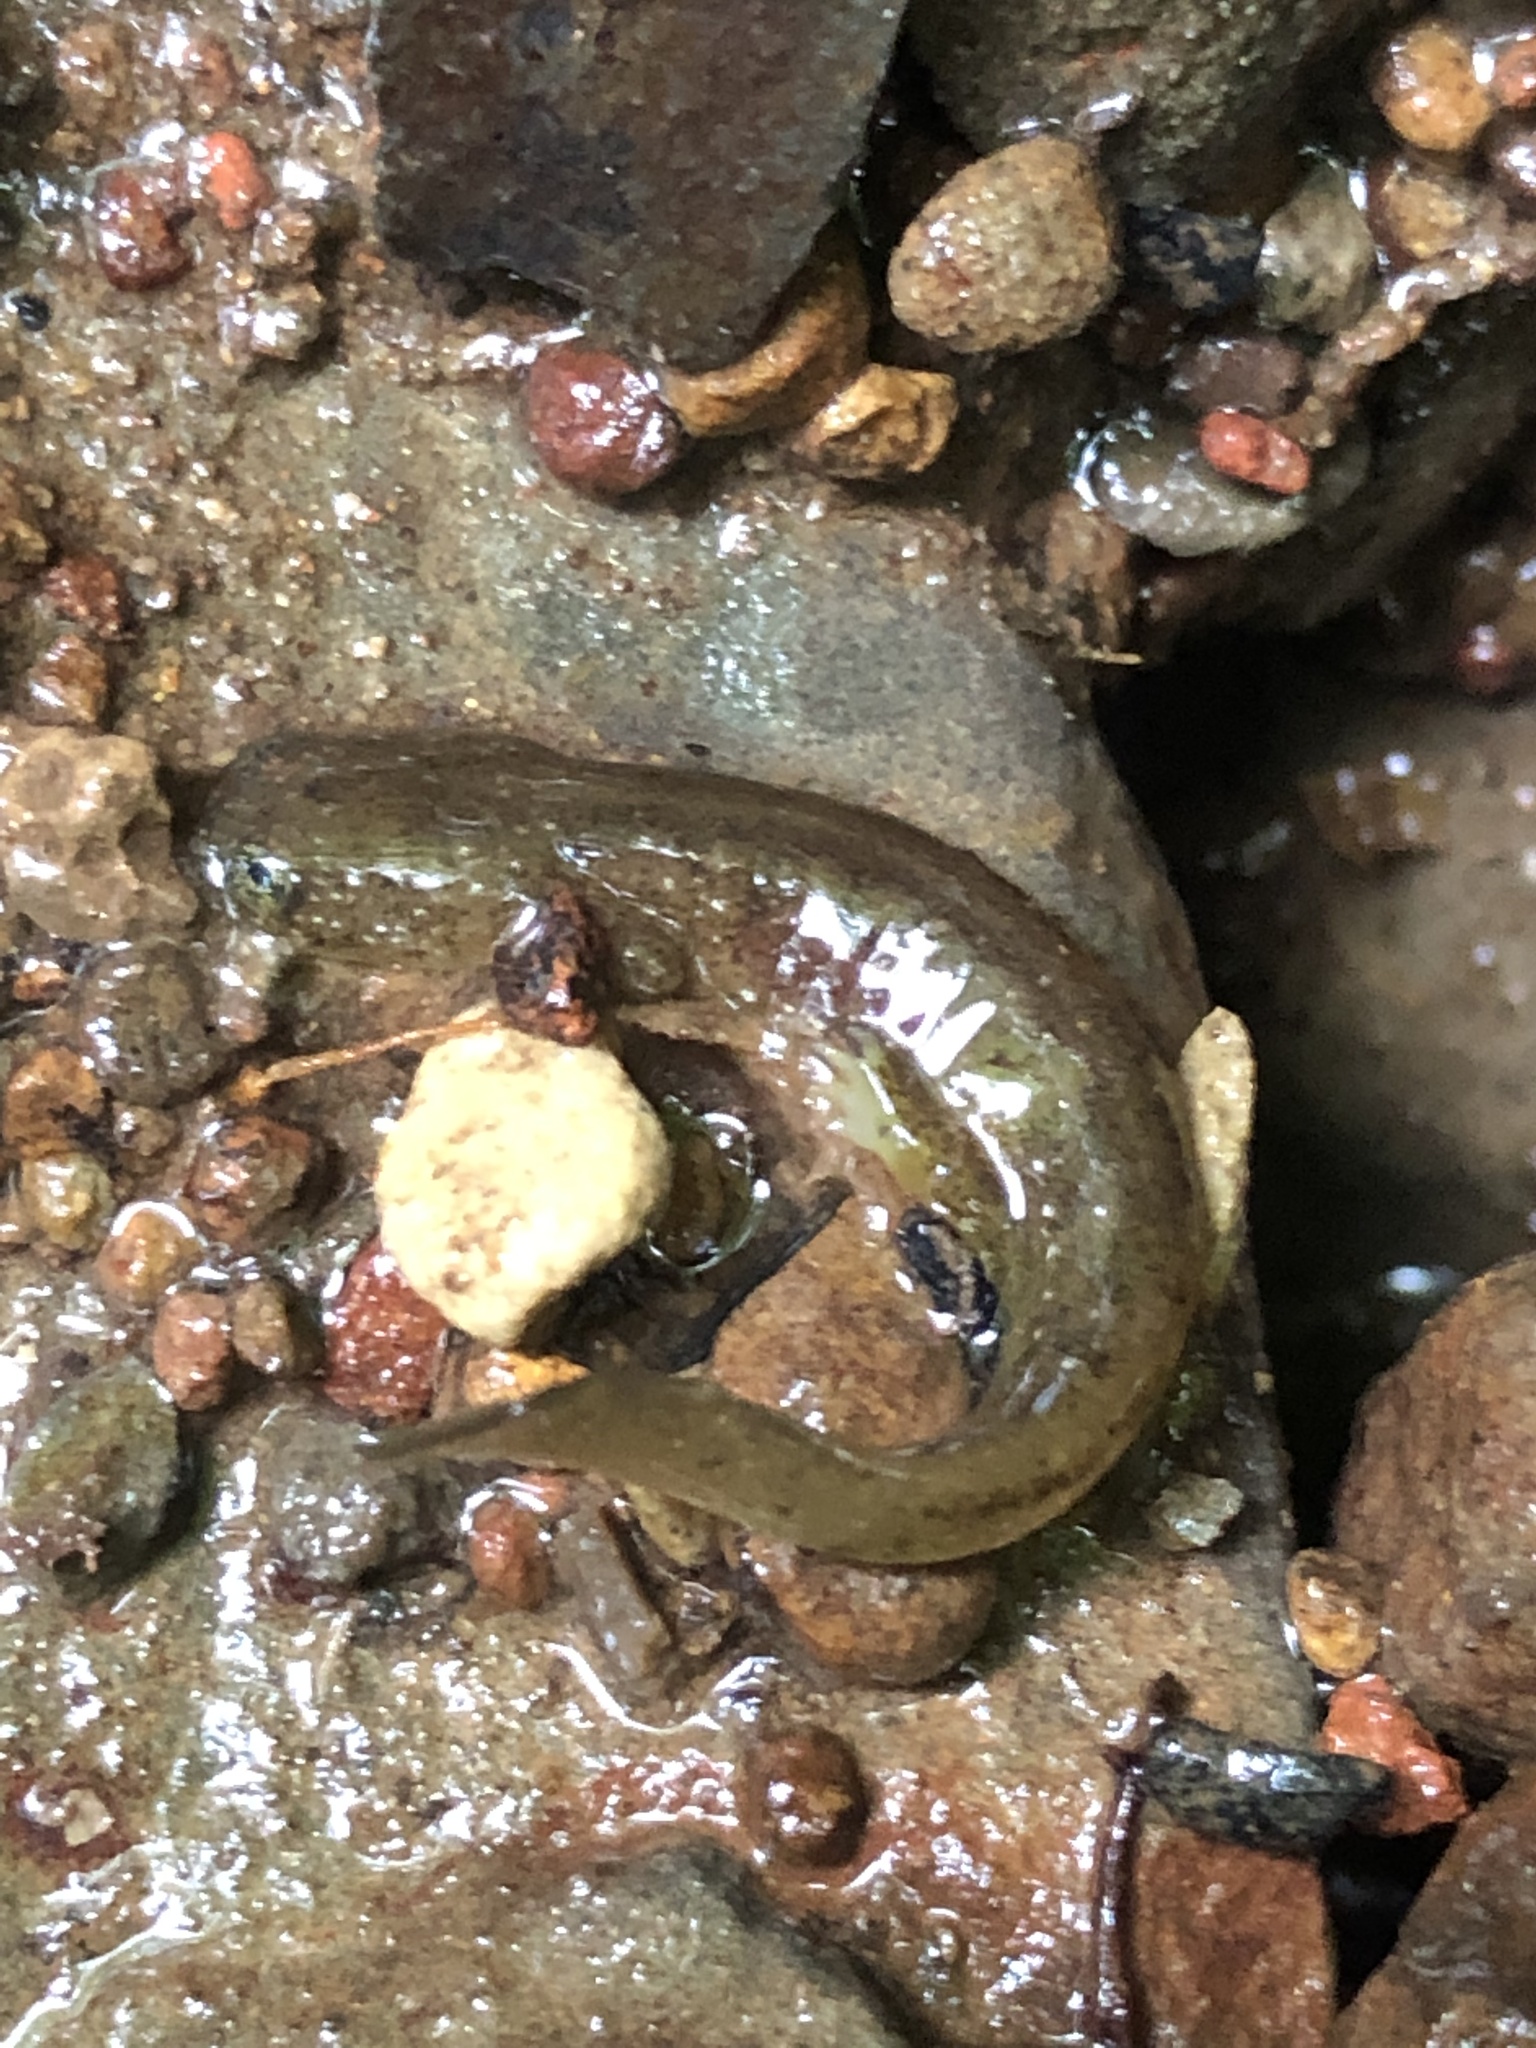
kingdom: Animalia
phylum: Chordata
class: Amphibia
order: Caudata
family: Rhyacotritonidae
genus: Rhyacotriton
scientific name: Rhyacotriton kezeri
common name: Columbia torrent salamander
